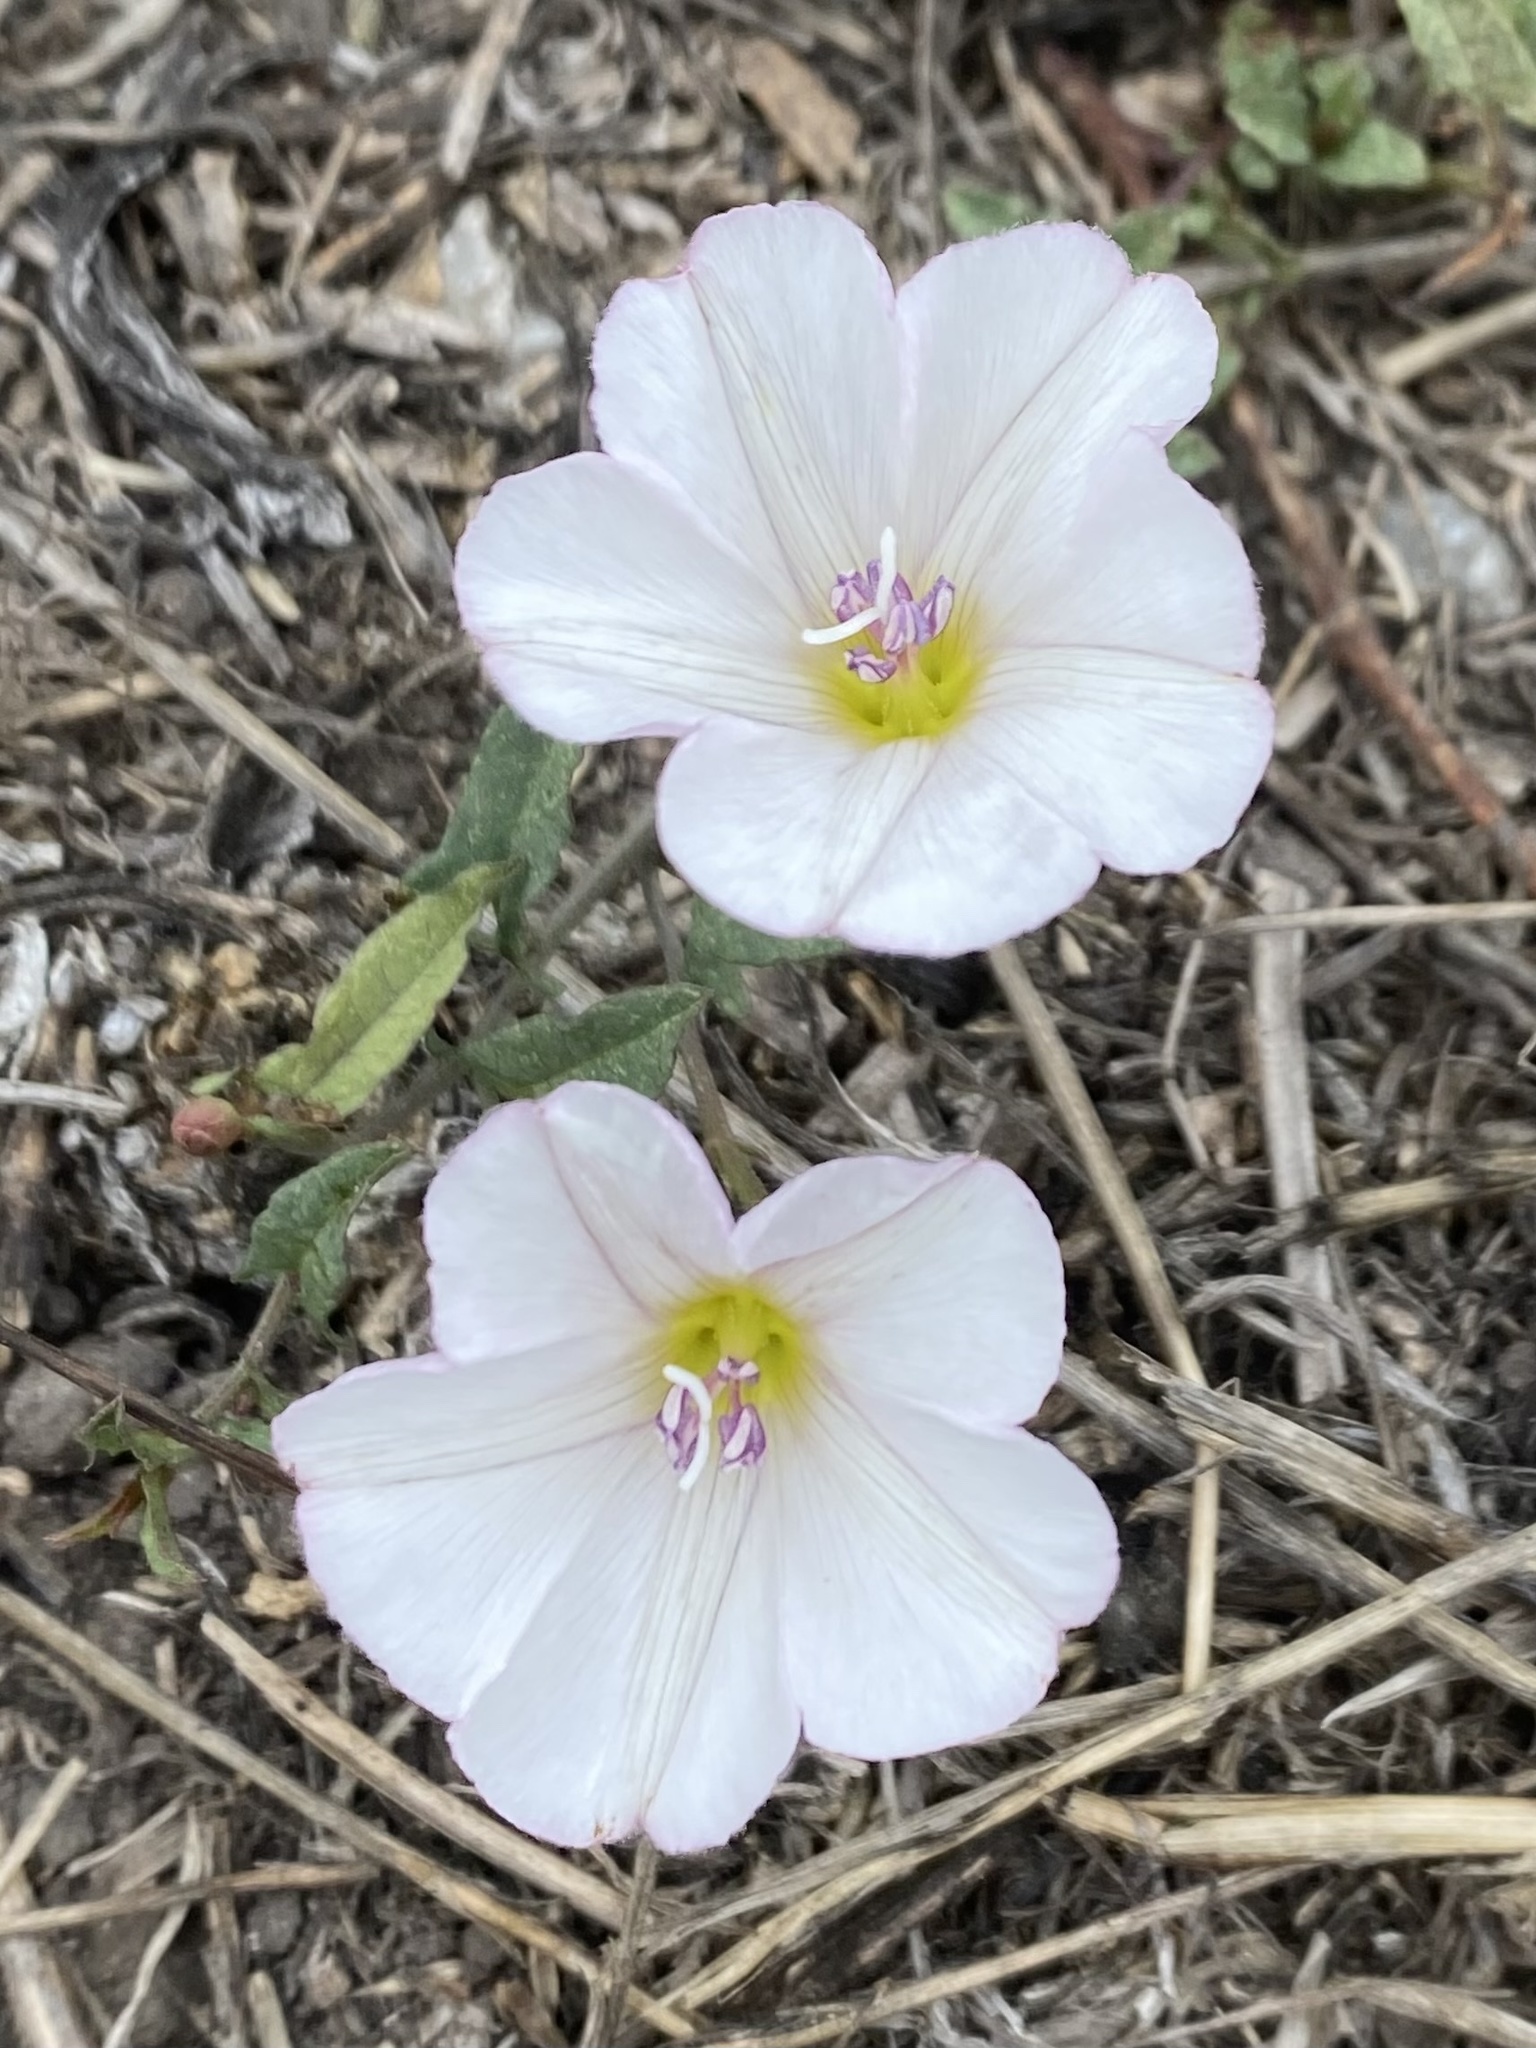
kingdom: Plantae
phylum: Tracheophyta
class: Magnoliopsida
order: Solanales
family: Convolvulaceae
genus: Convolvulus
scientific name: Convolvulus arvensis
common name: Field bindweed
